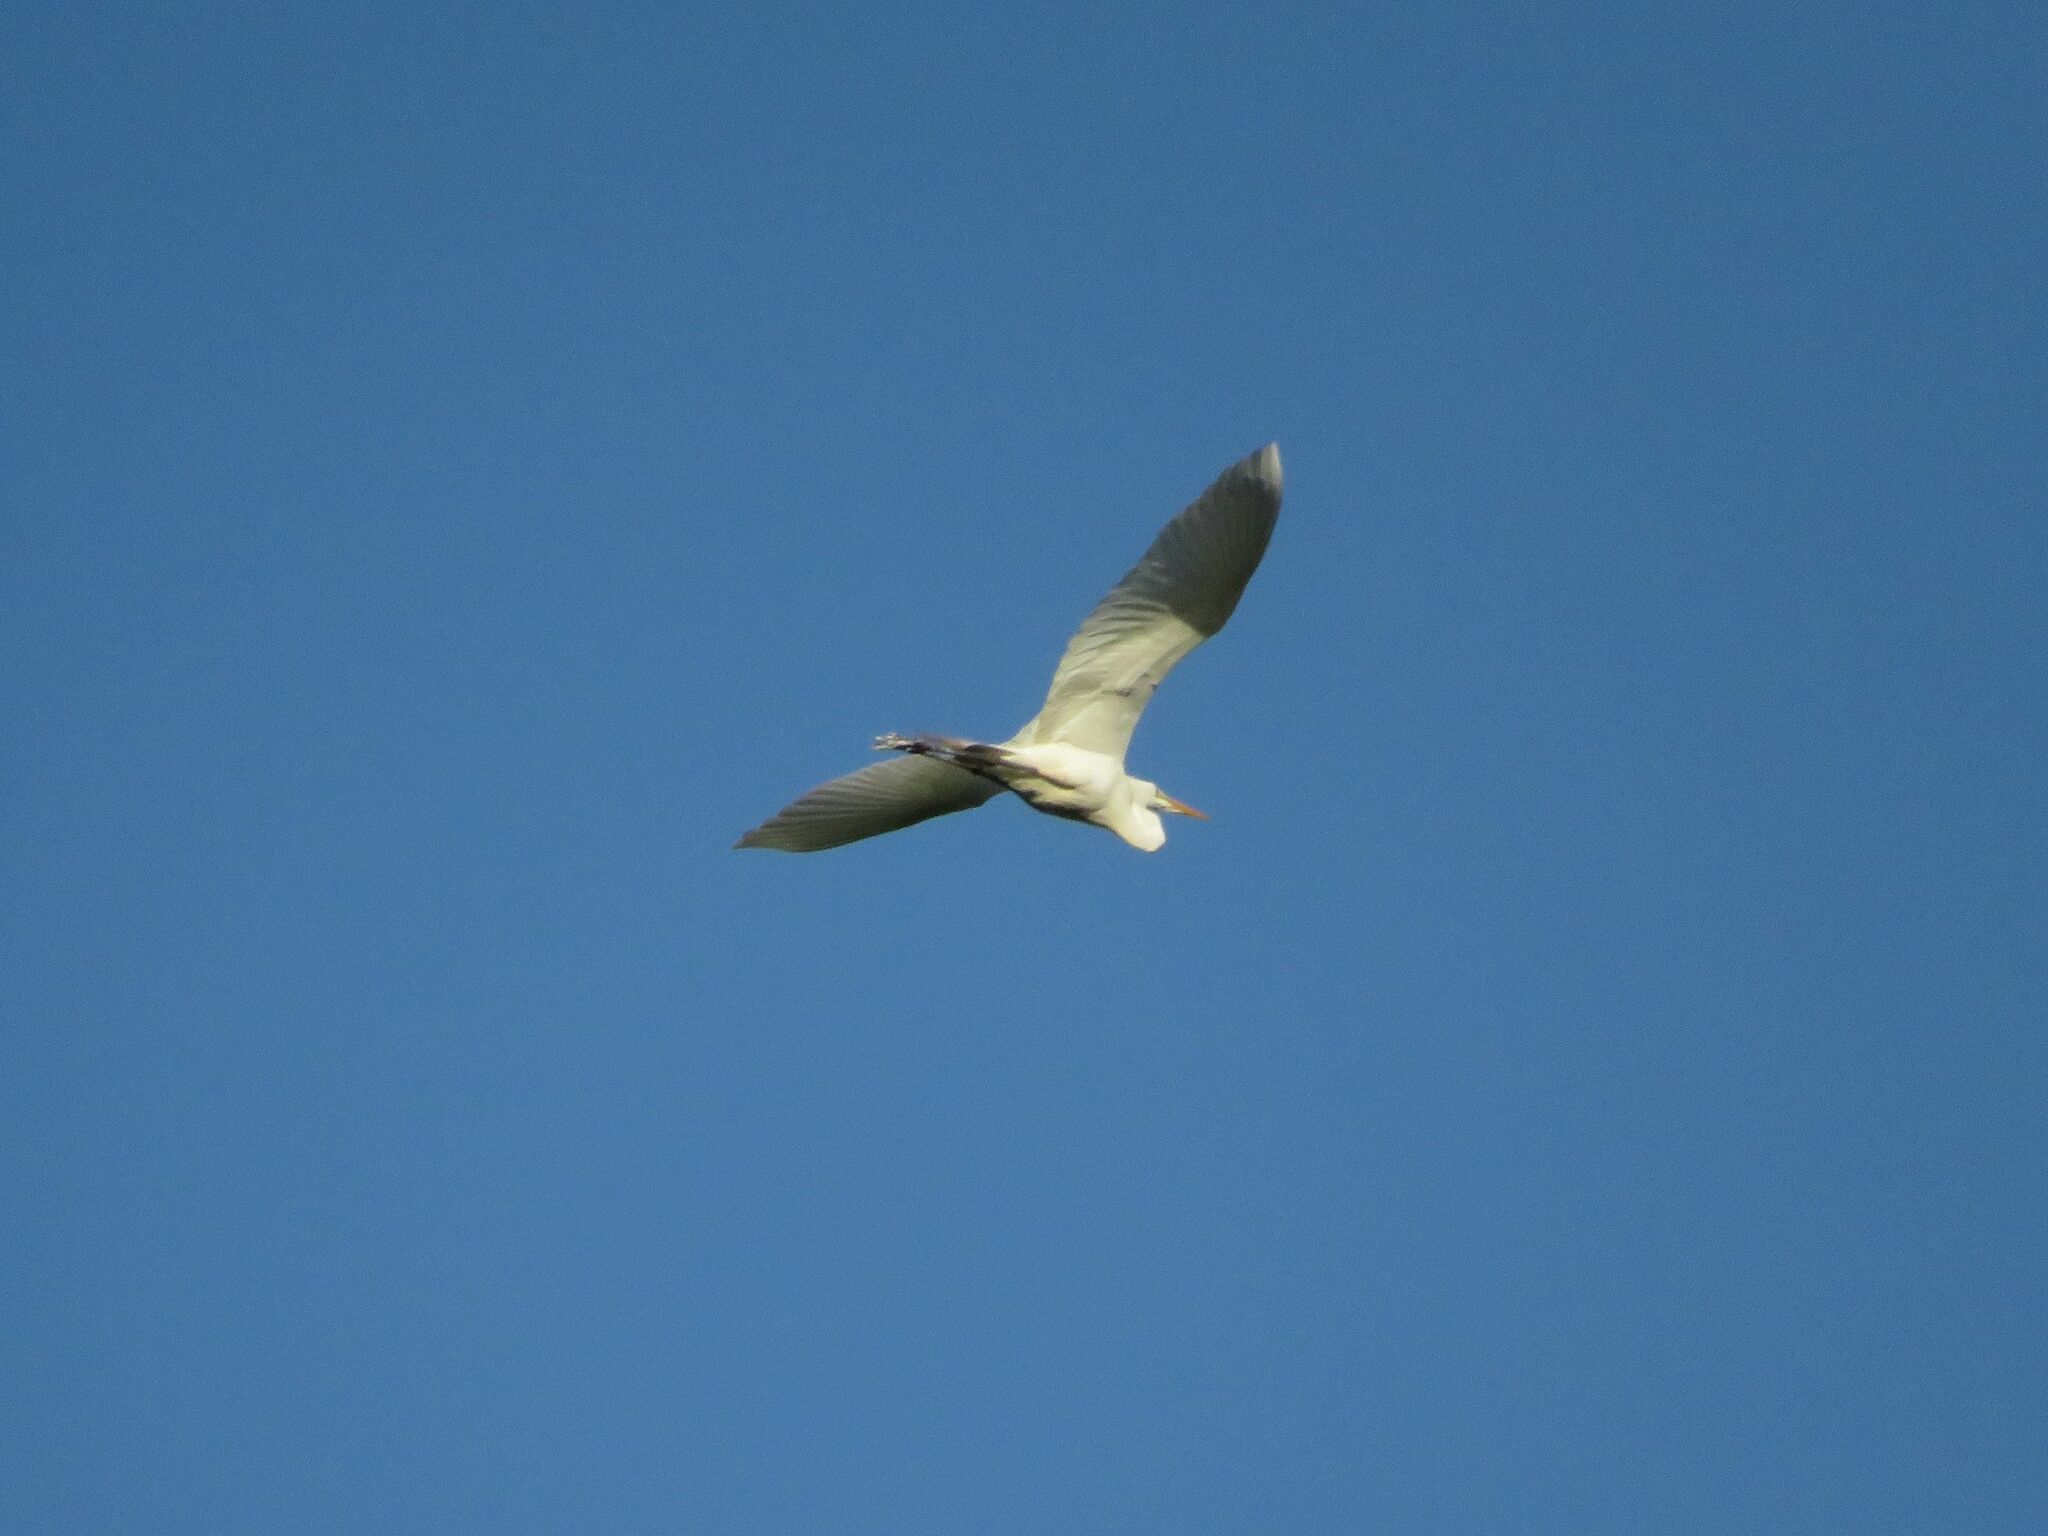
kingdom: Animalia
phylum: Chordata
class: Aves
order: Pelecaniformes
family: Ardeidae
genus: Ardea
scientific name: Ardea alba
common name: Great egret
